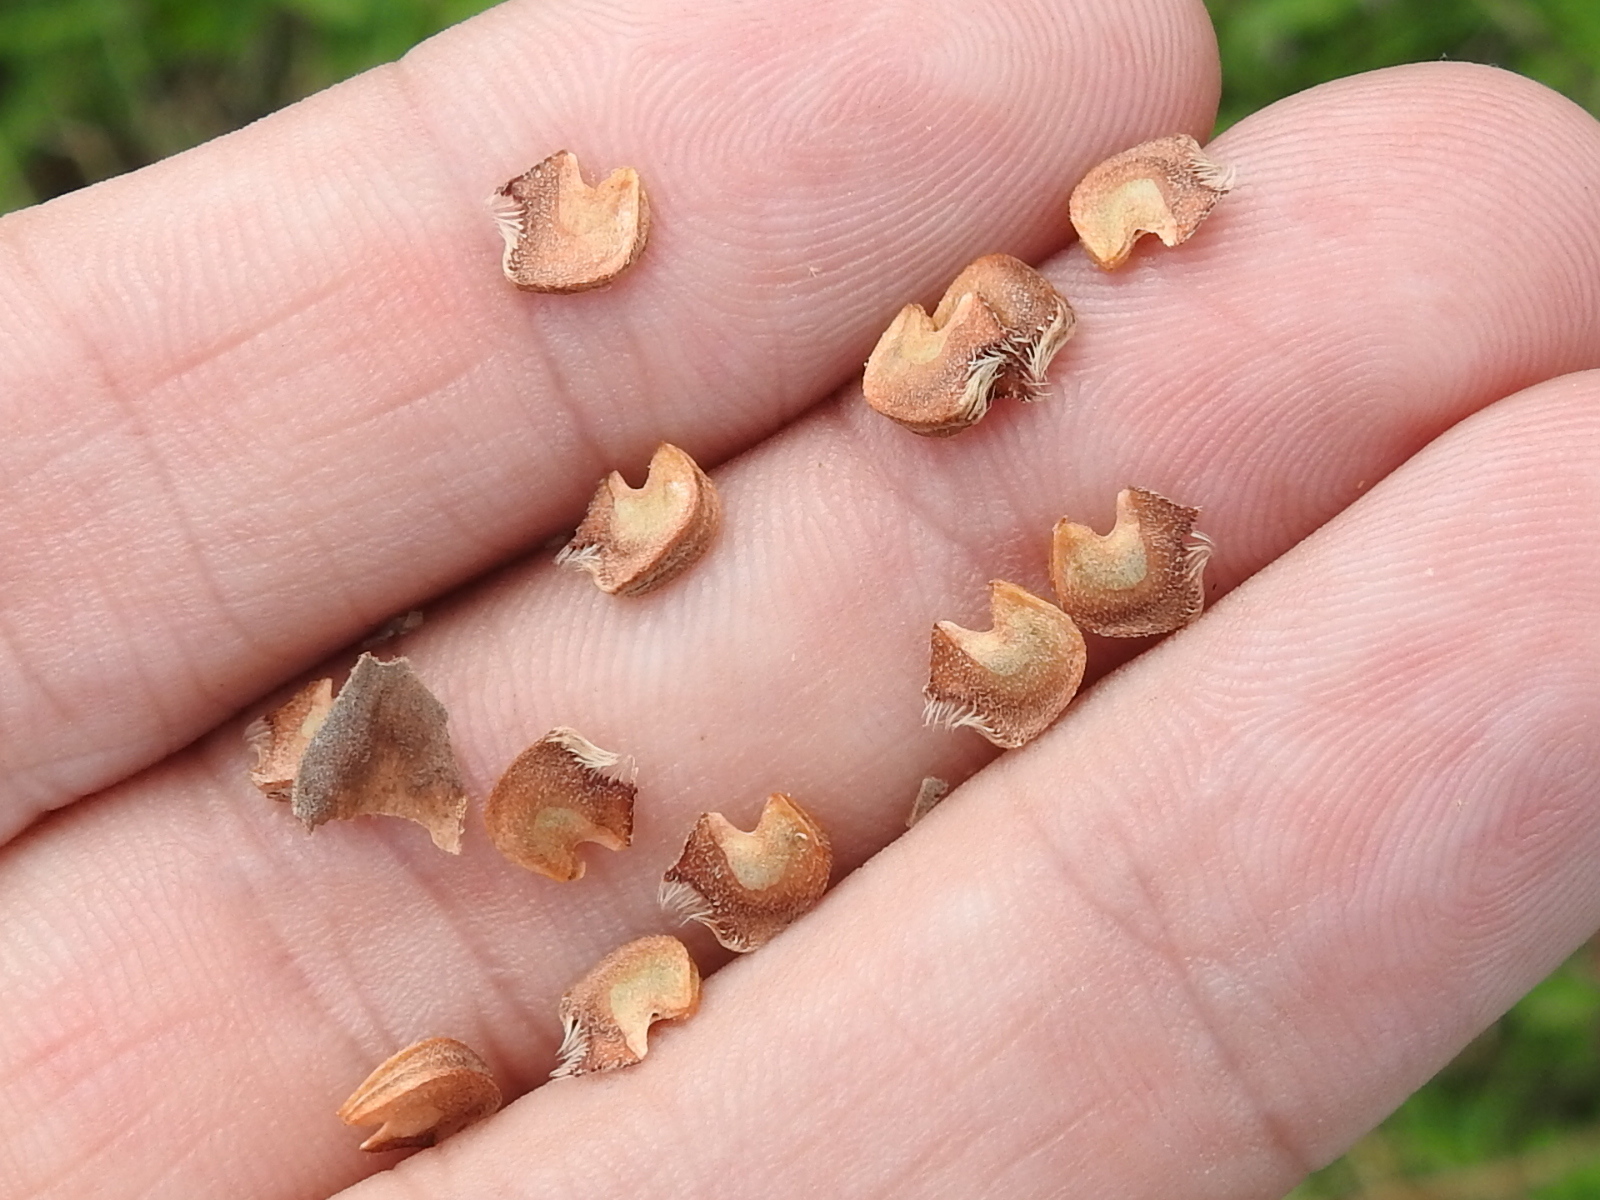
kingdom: Plantae
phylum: Tracheophyta
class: Magnoliopsida
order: Malvales
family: Malvaceae
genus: Malvastrum
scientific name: Malvastrum aurantiacum
